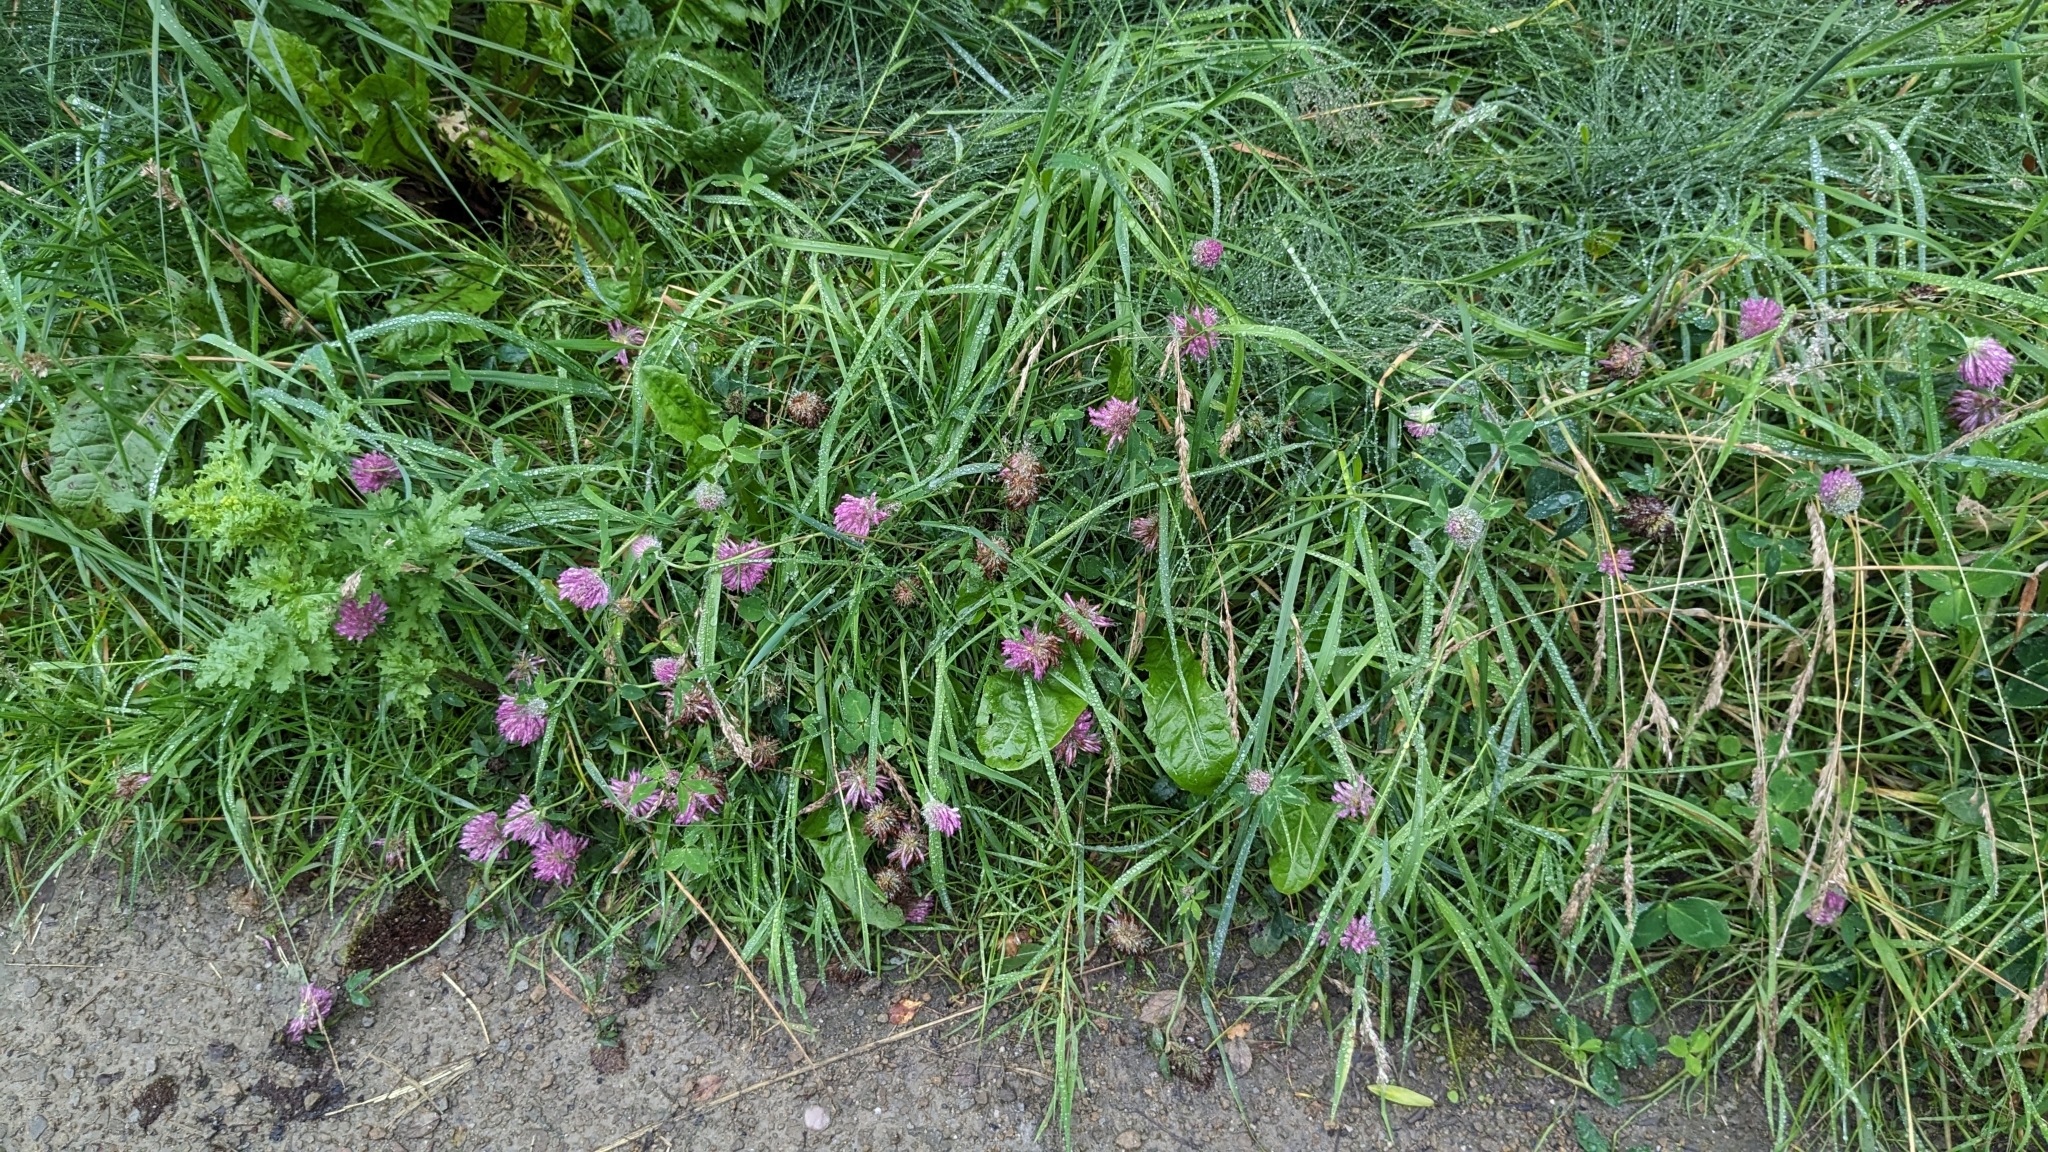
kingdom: Plantae
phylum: Tracheophyta
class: Magnoliopsida
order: Fabales
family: Fabaceae
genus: Trifolium
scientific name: Trifolium pratense
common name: Red clover
